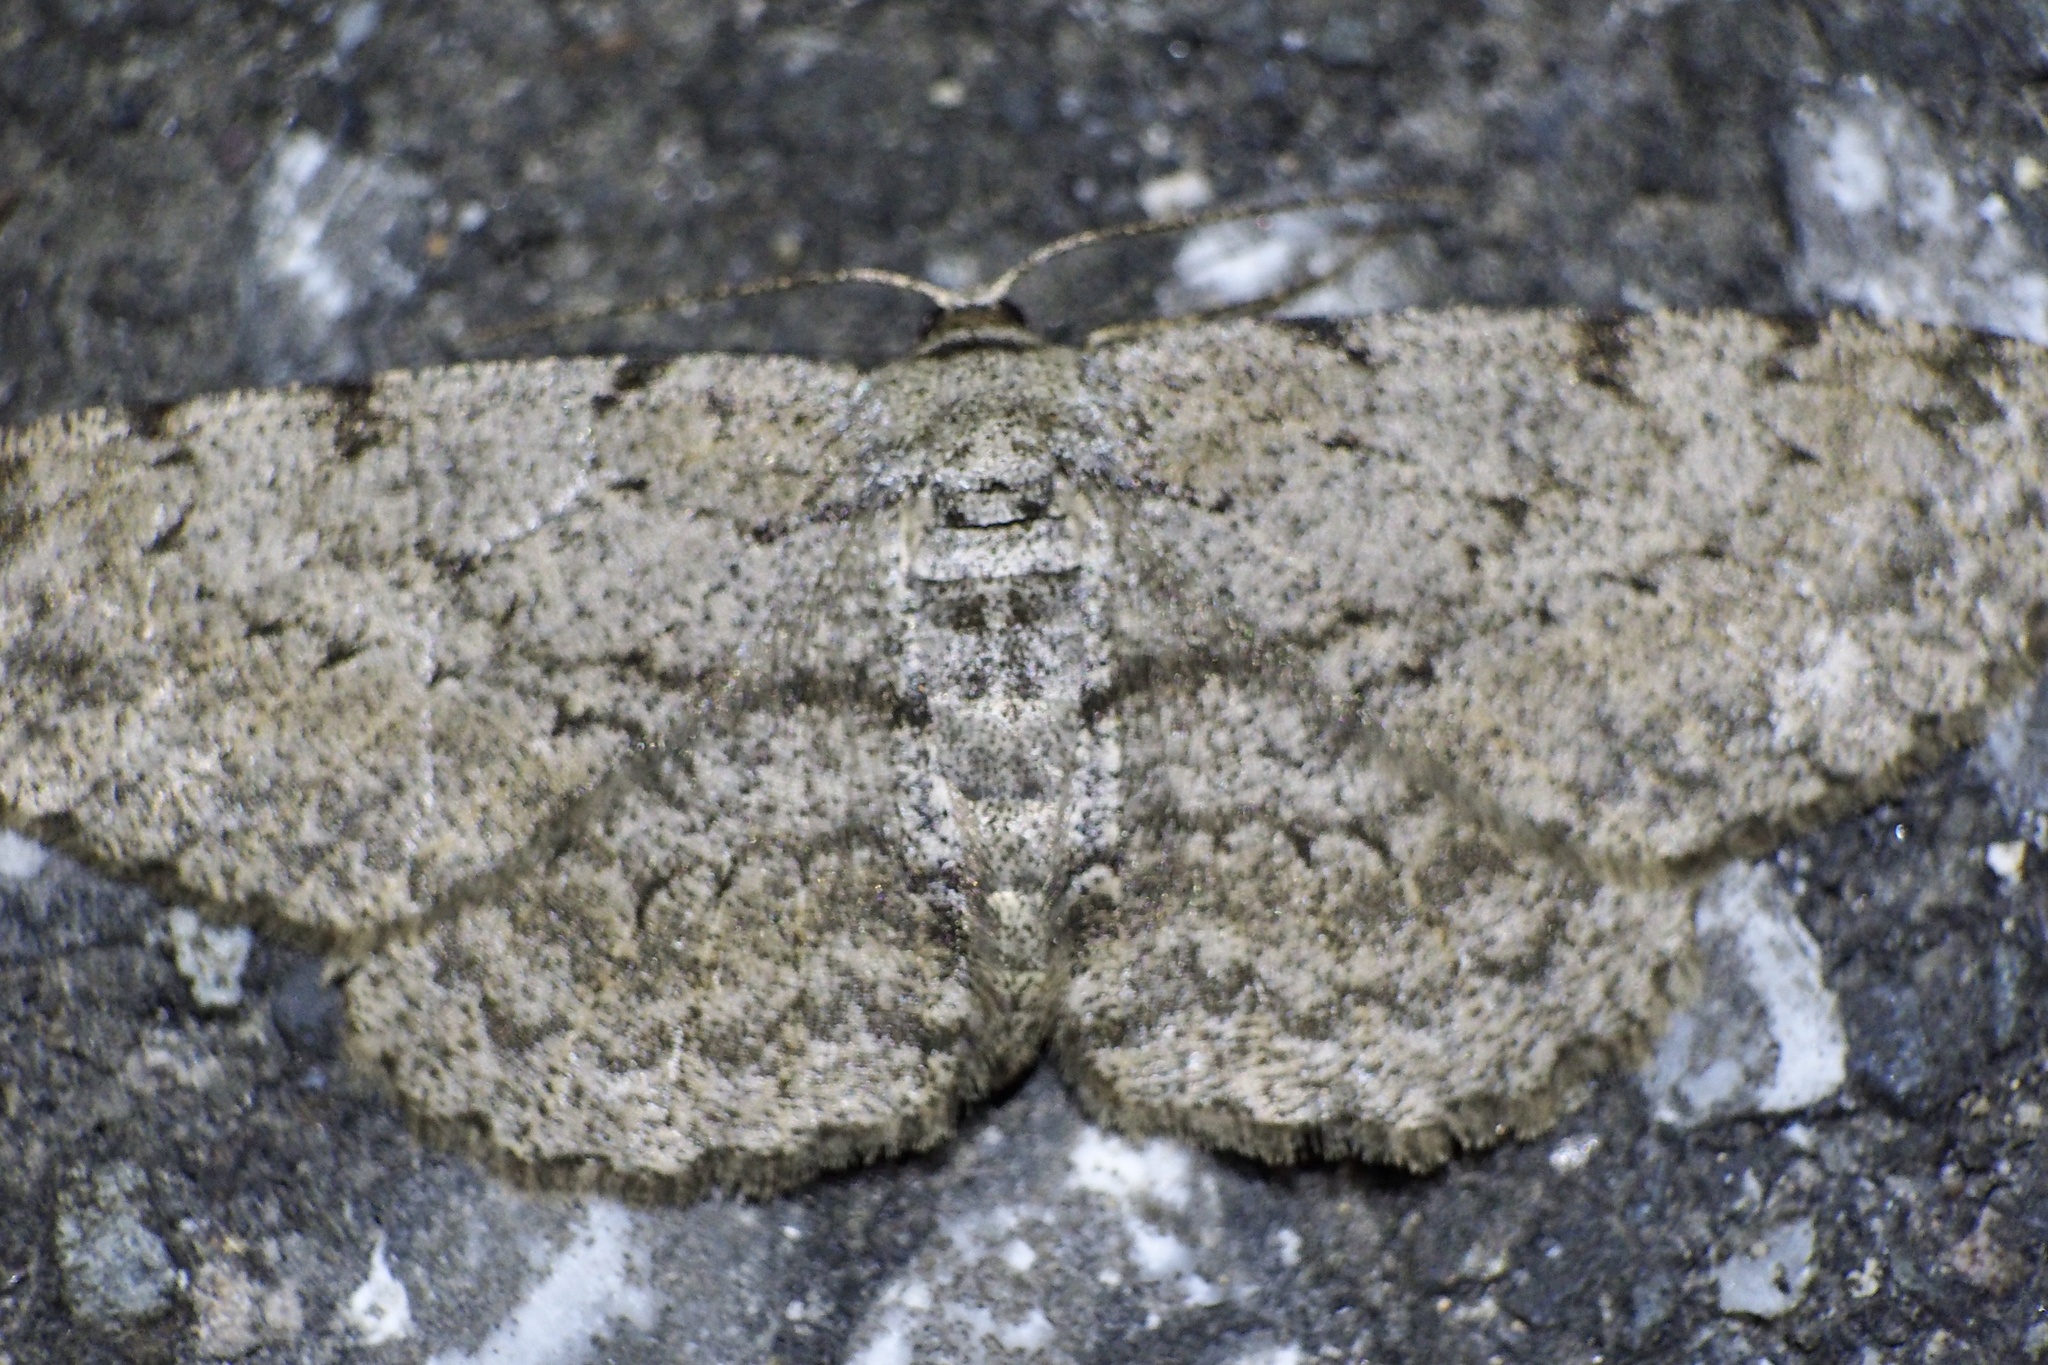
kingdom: Animalia
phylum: Arthropoda
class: Insecta
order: Lepidoptera
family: Geometridae
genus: Hypomecis
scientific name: Hypomecis punctinalis
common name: Pale oak beauty
